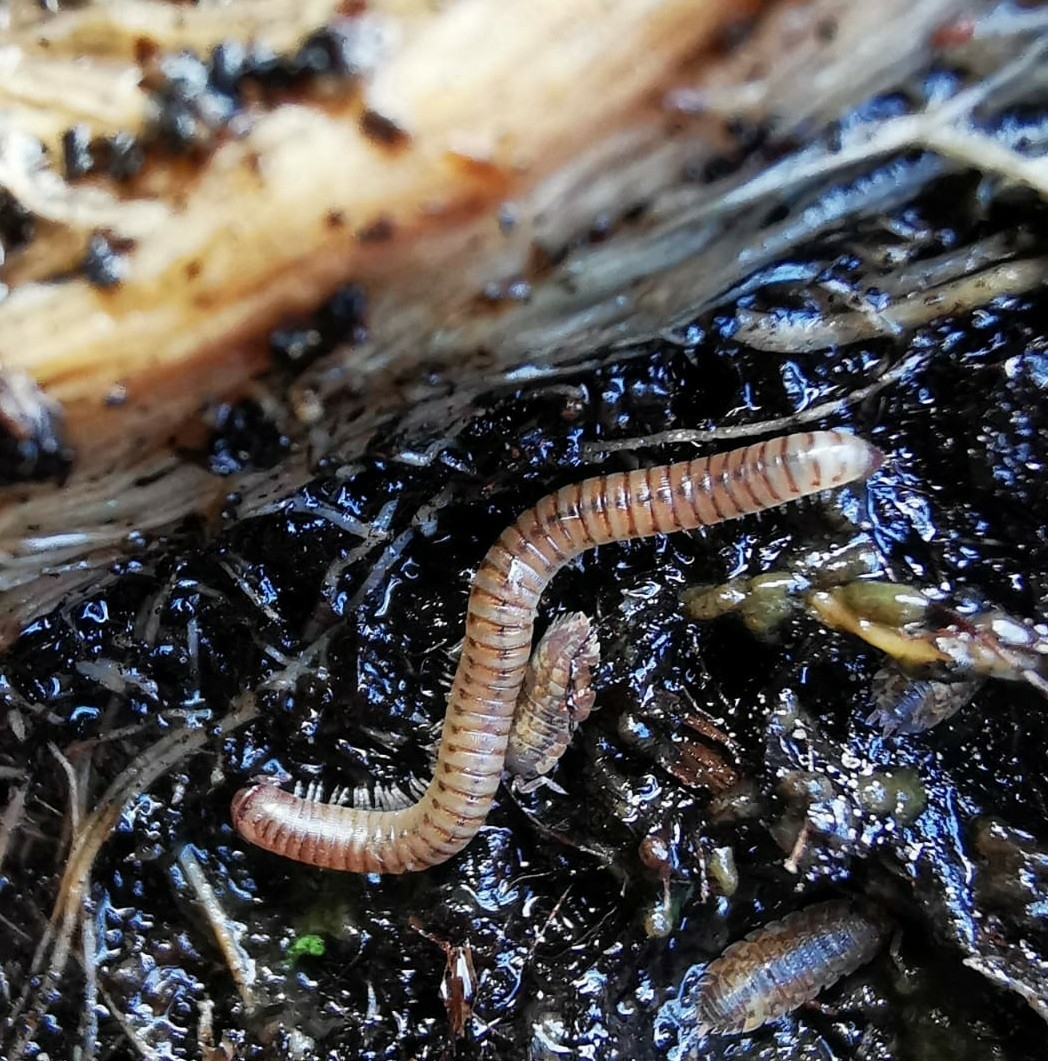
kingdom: Animalia
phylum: Arthropoda
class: Diplopoda
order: Julida
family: Julidae
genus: Cylindroiulus
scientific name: Cylindroiulus punctatus
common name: Blunt-tailed millipede
